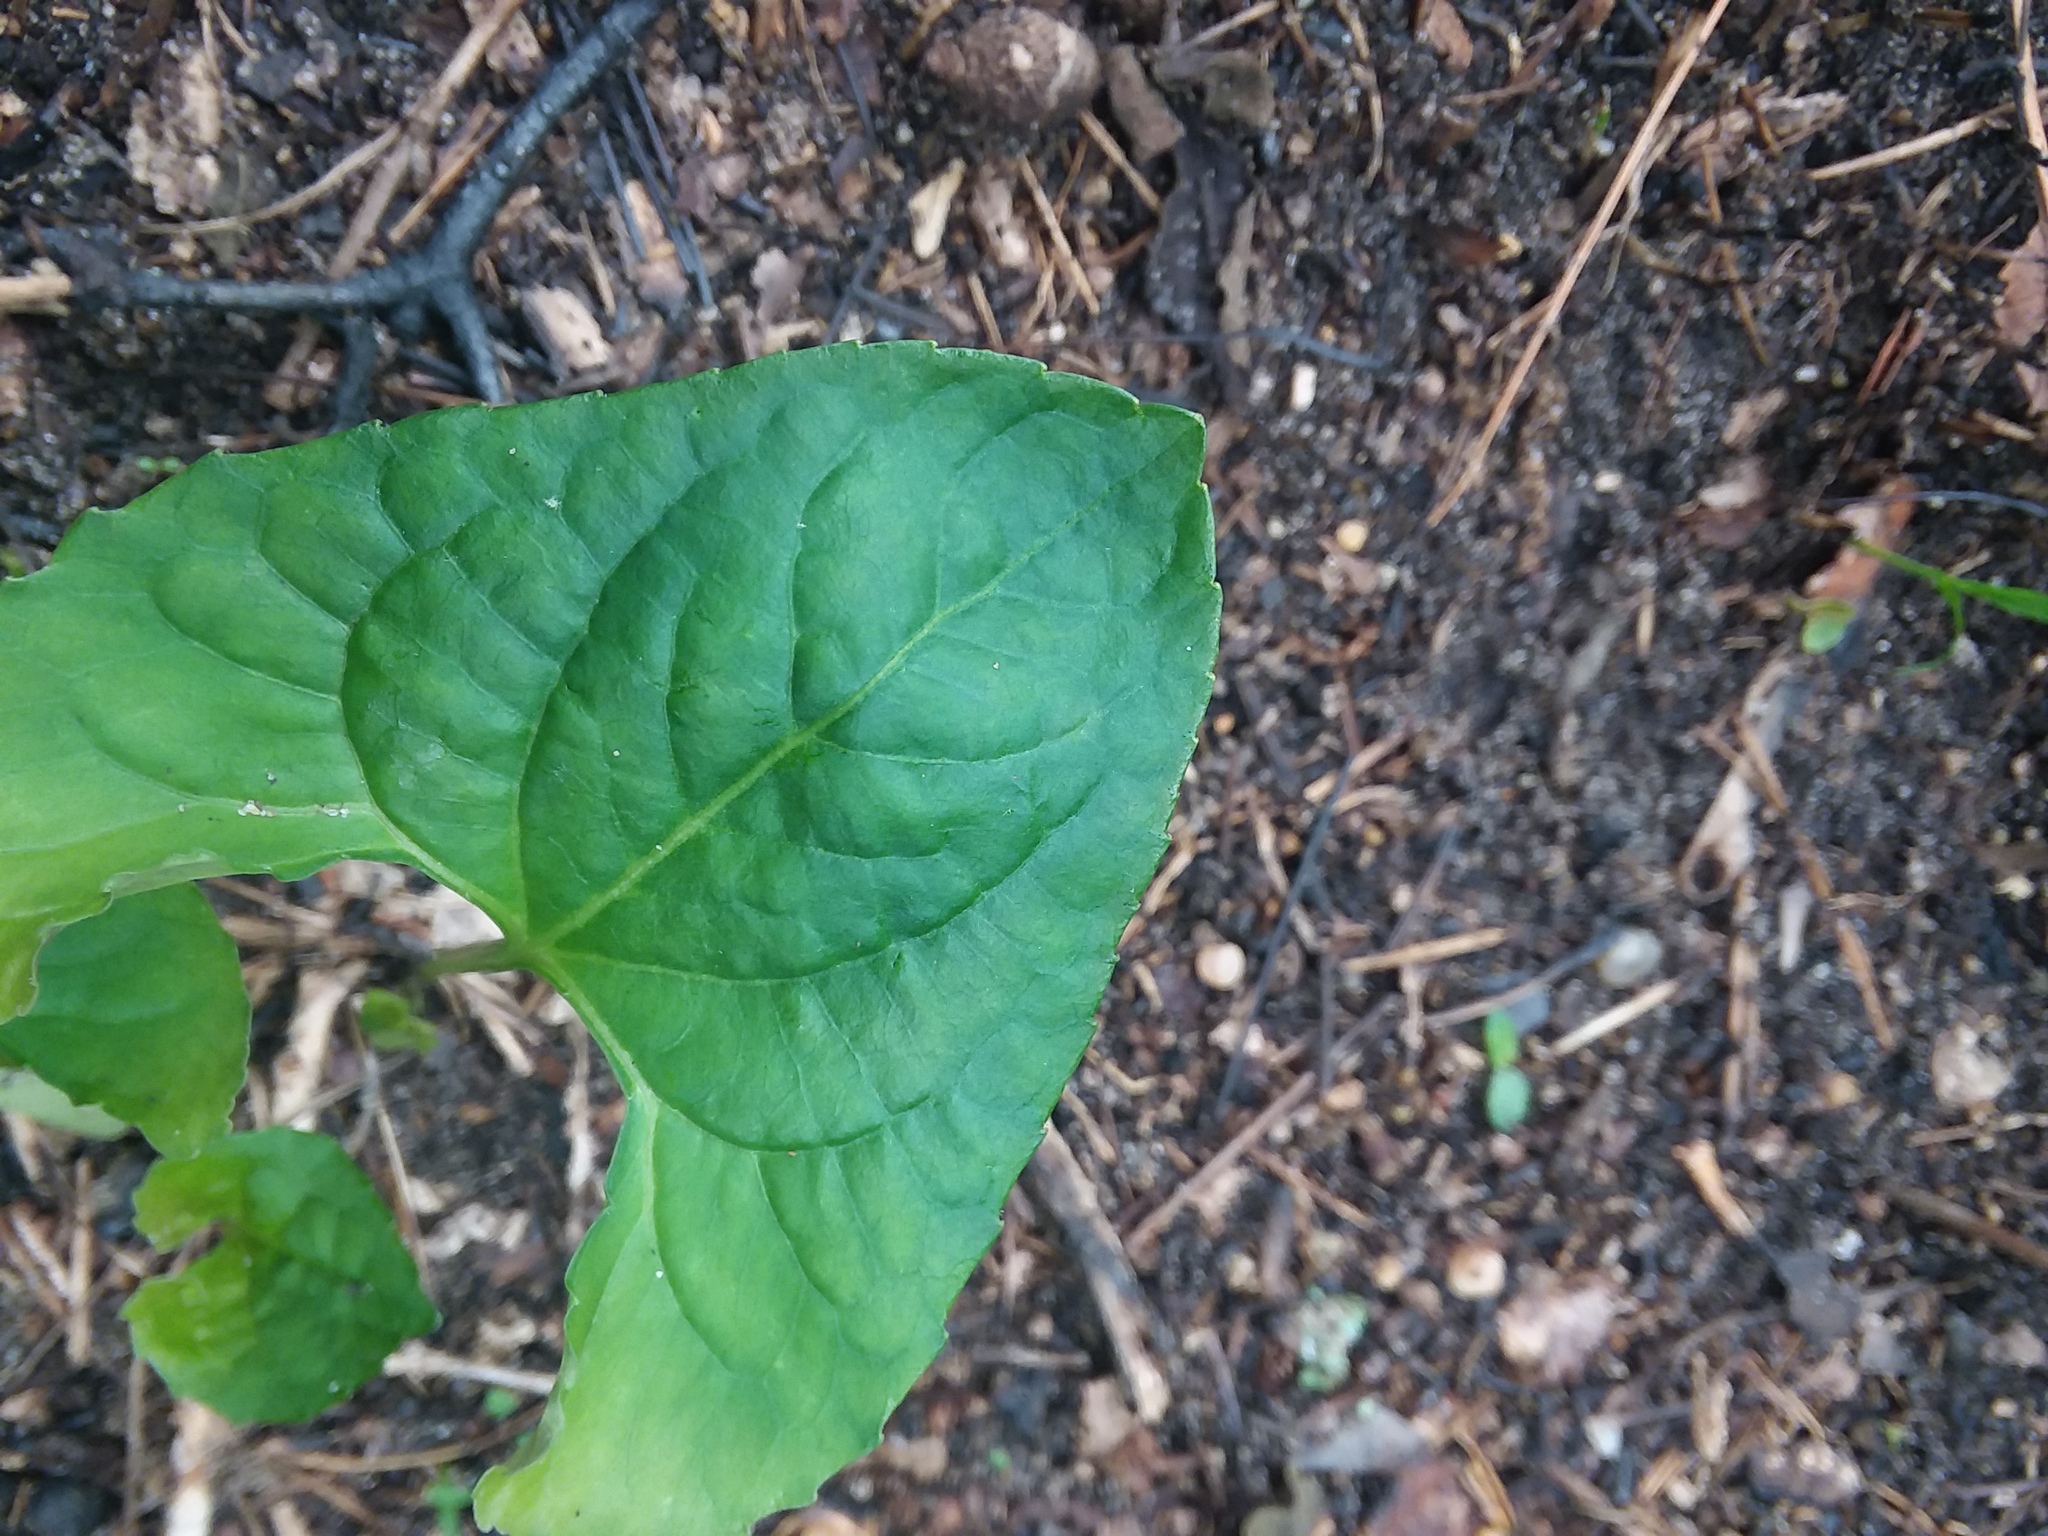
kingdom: Plantae
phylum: Tracheophyta
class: Magnoliopsida
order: Malpighiales
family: Violaceae
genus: Viola
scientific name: Viola sororia
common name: Dooryard violet
